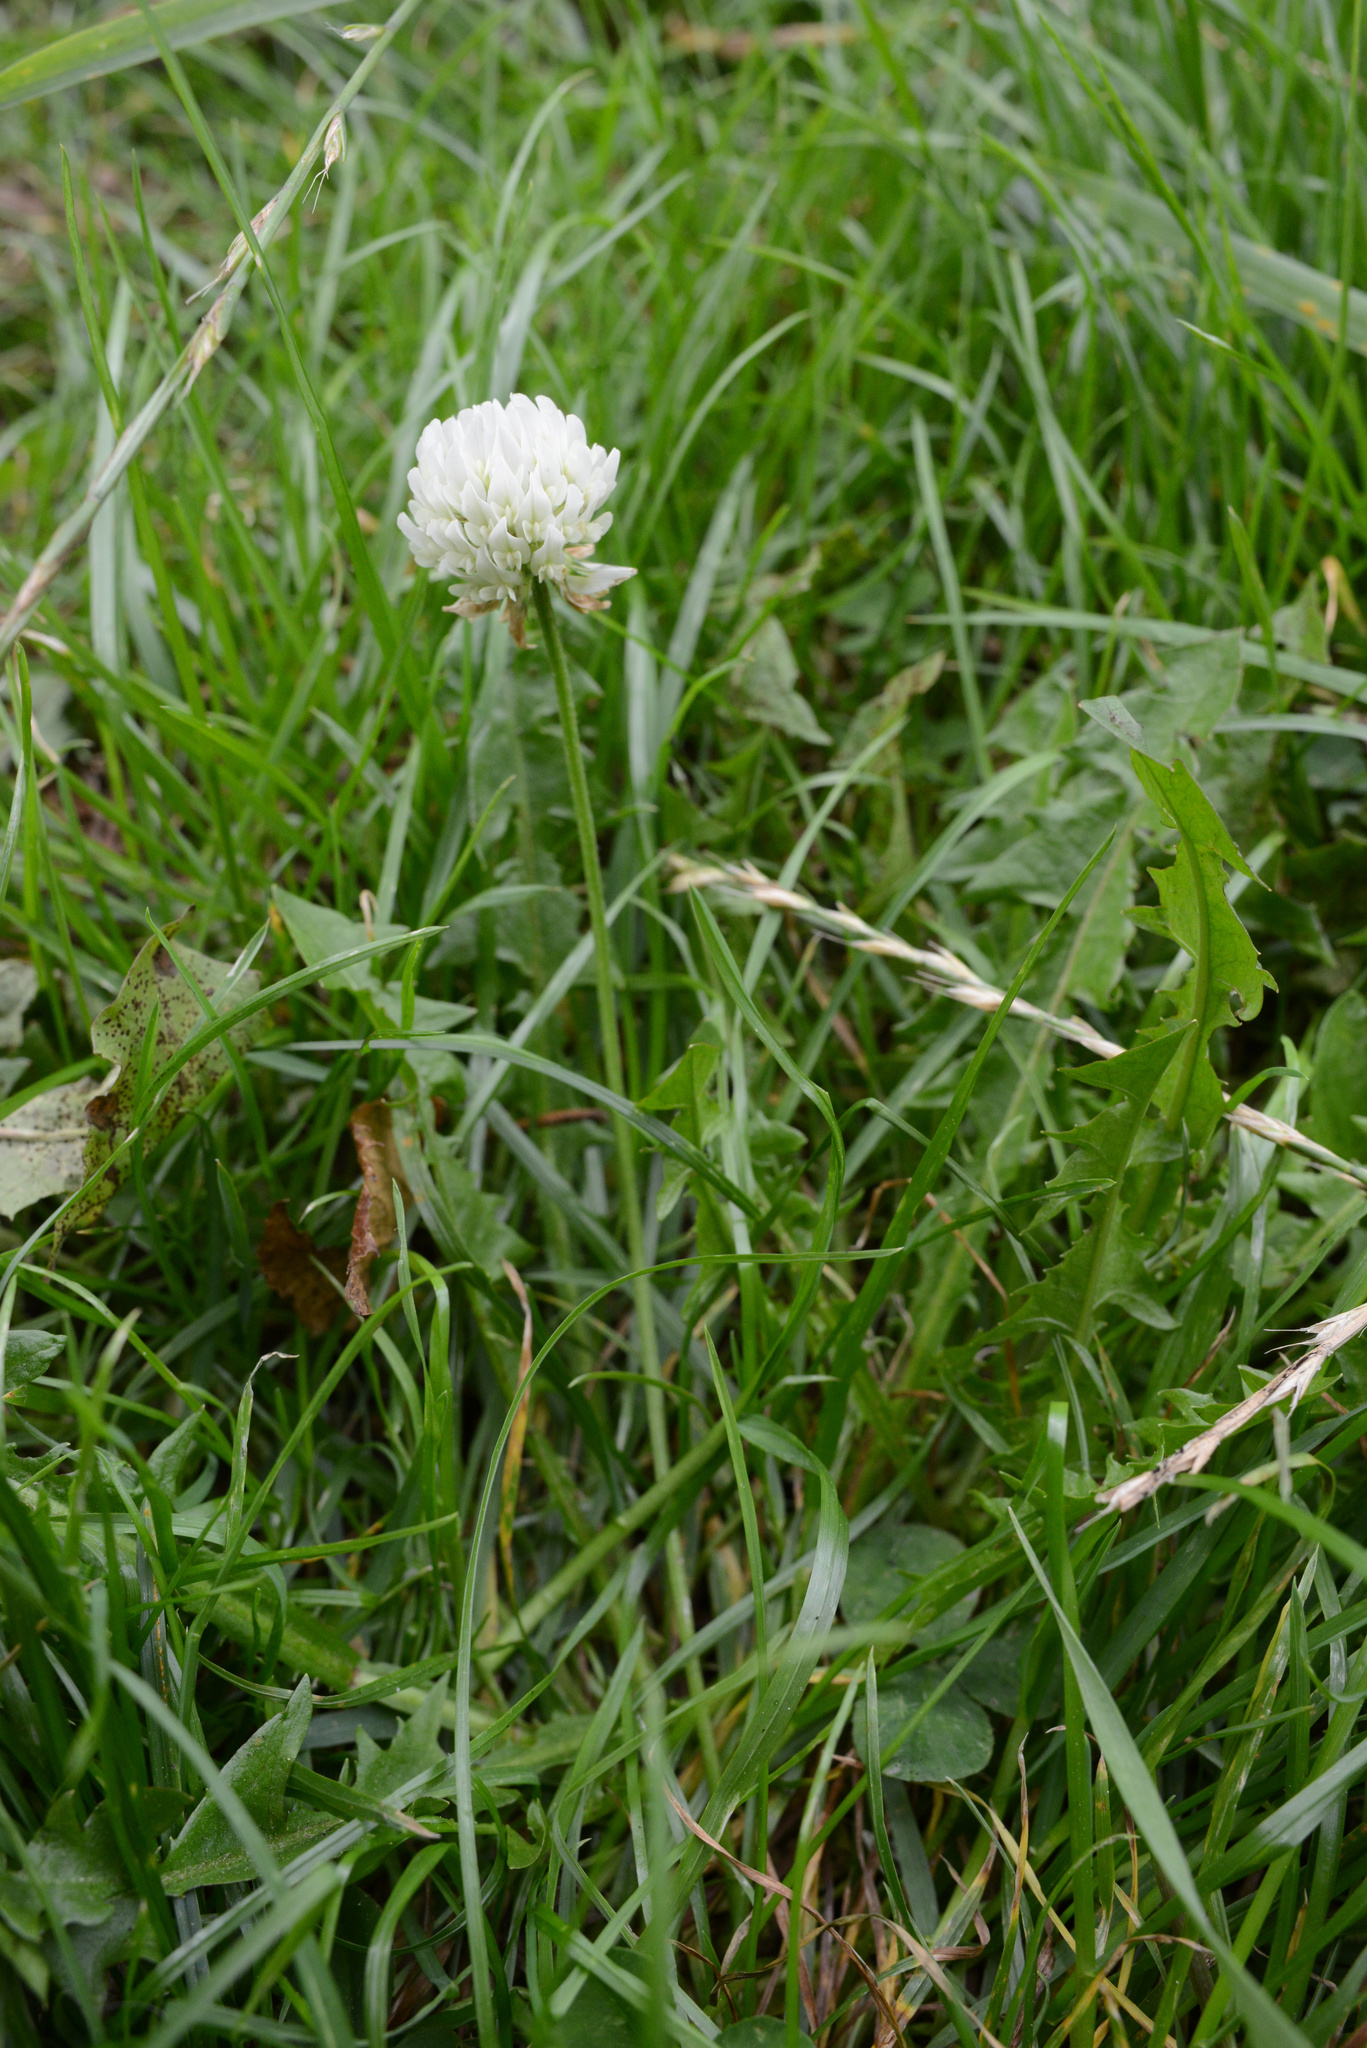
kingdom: Plantae
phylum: Tracheophyta
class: Magnoliopsida
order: Fabales
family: Fabaceae
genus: Trifolium
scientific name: Trifolium repens
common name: White clover
